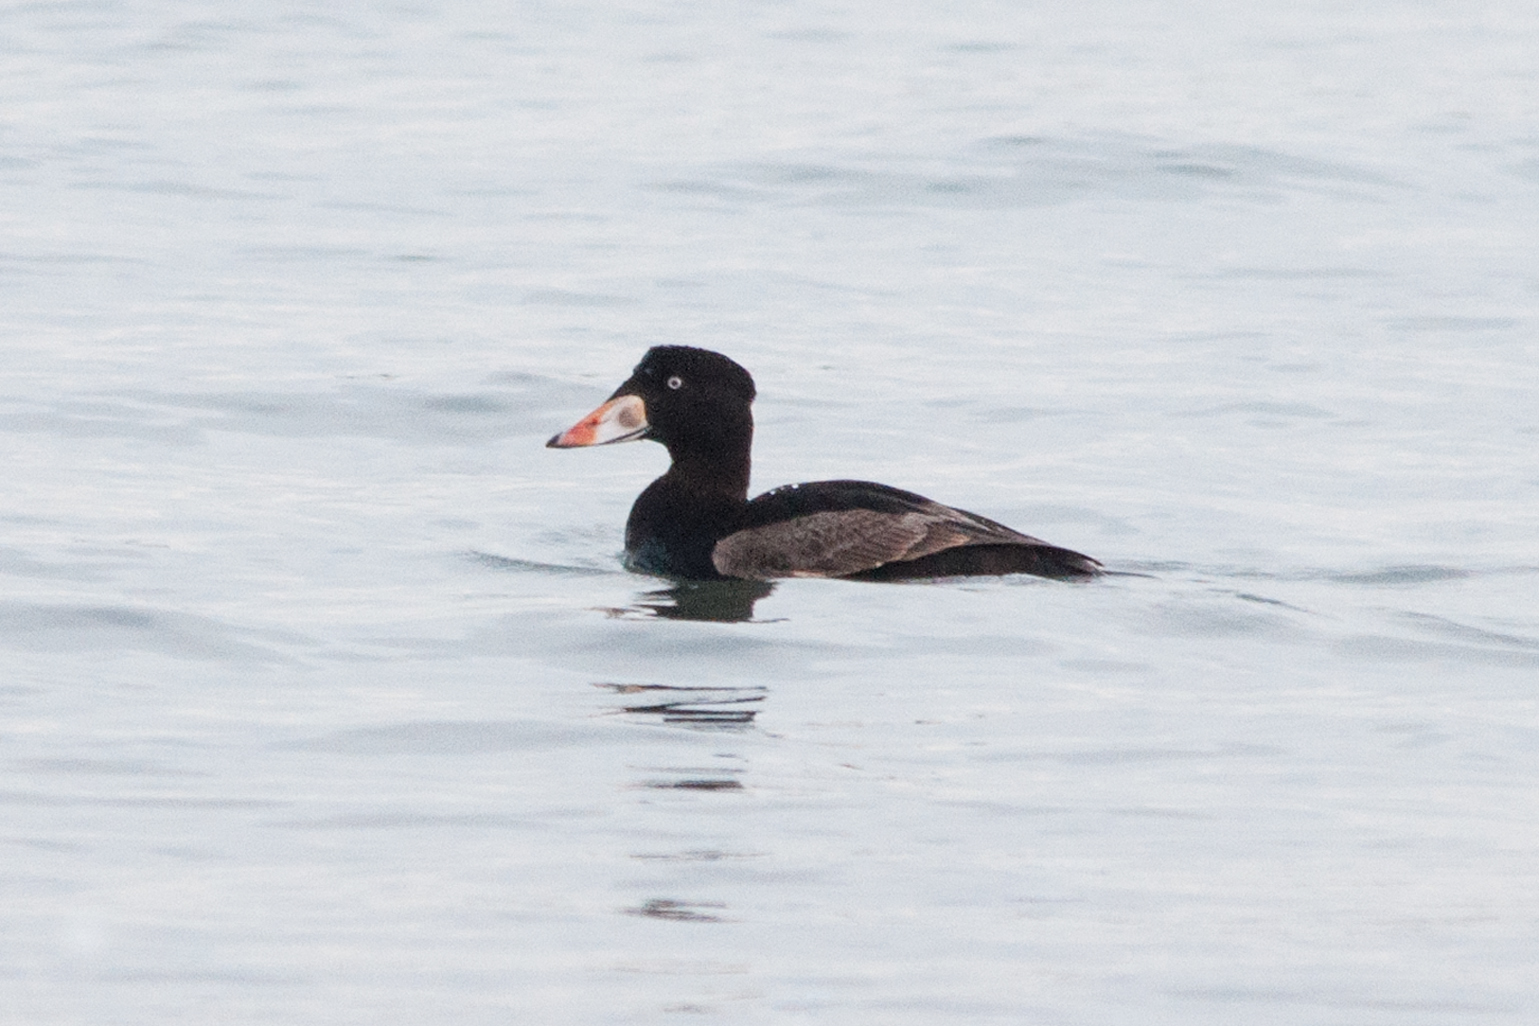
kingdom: Animalia
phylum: Chordata
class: Aves
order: Anseriformes
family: Anatidae
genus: Melanitta
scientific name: Melanitta perspicillata
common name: Surf scoter
